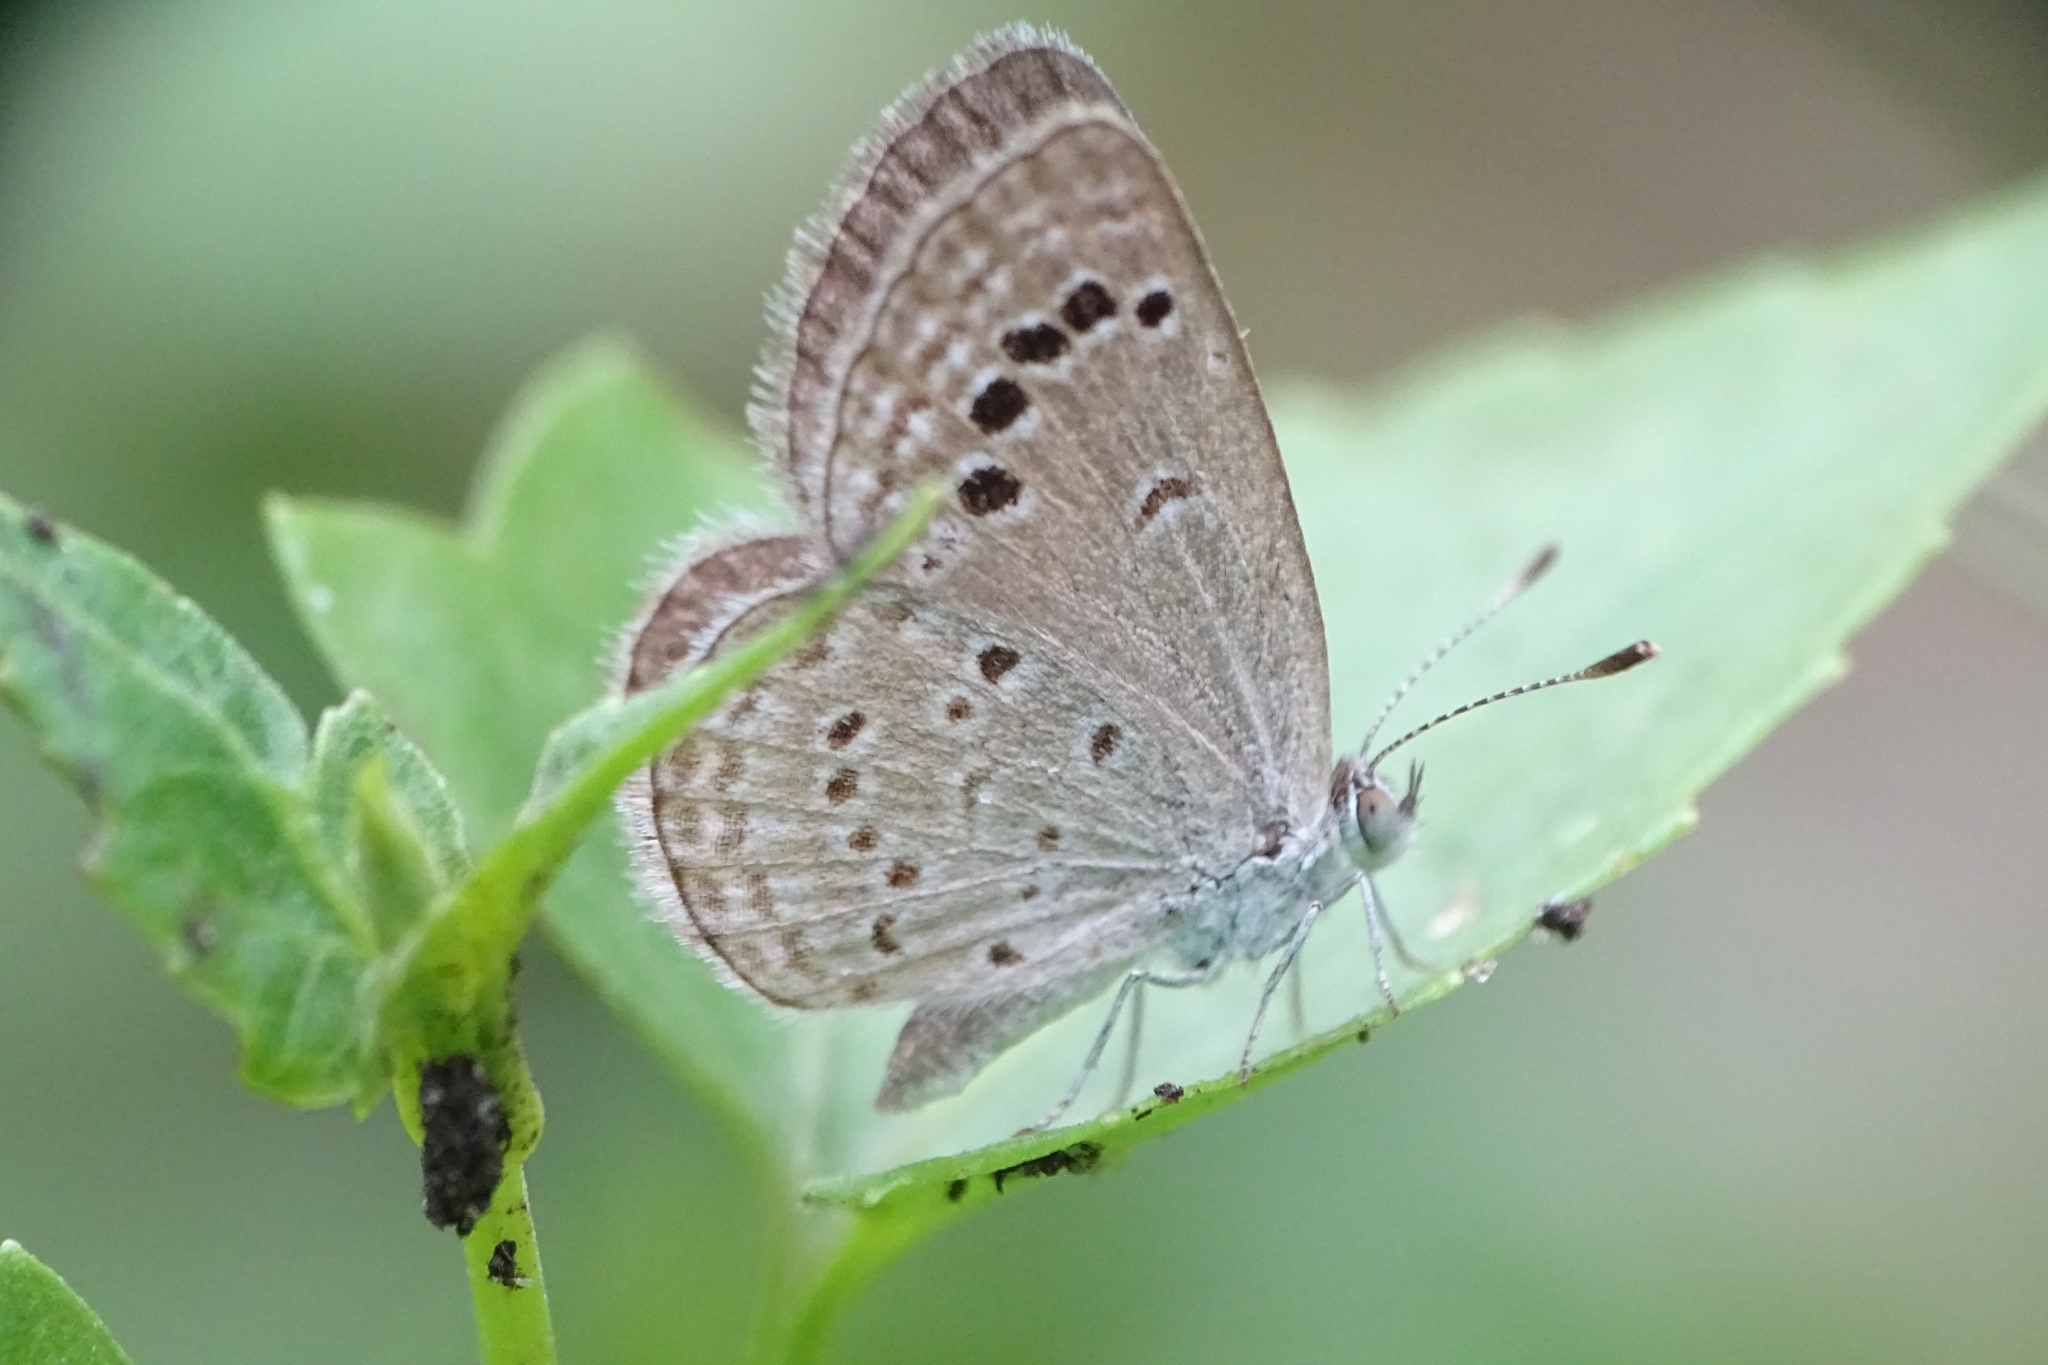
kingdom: Animalia
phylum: Arthropoda
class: Insecta
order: Lepidoptera
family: Lycaenidae
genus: Zizina
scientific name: Zizina otis
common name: Lesser grass blue
